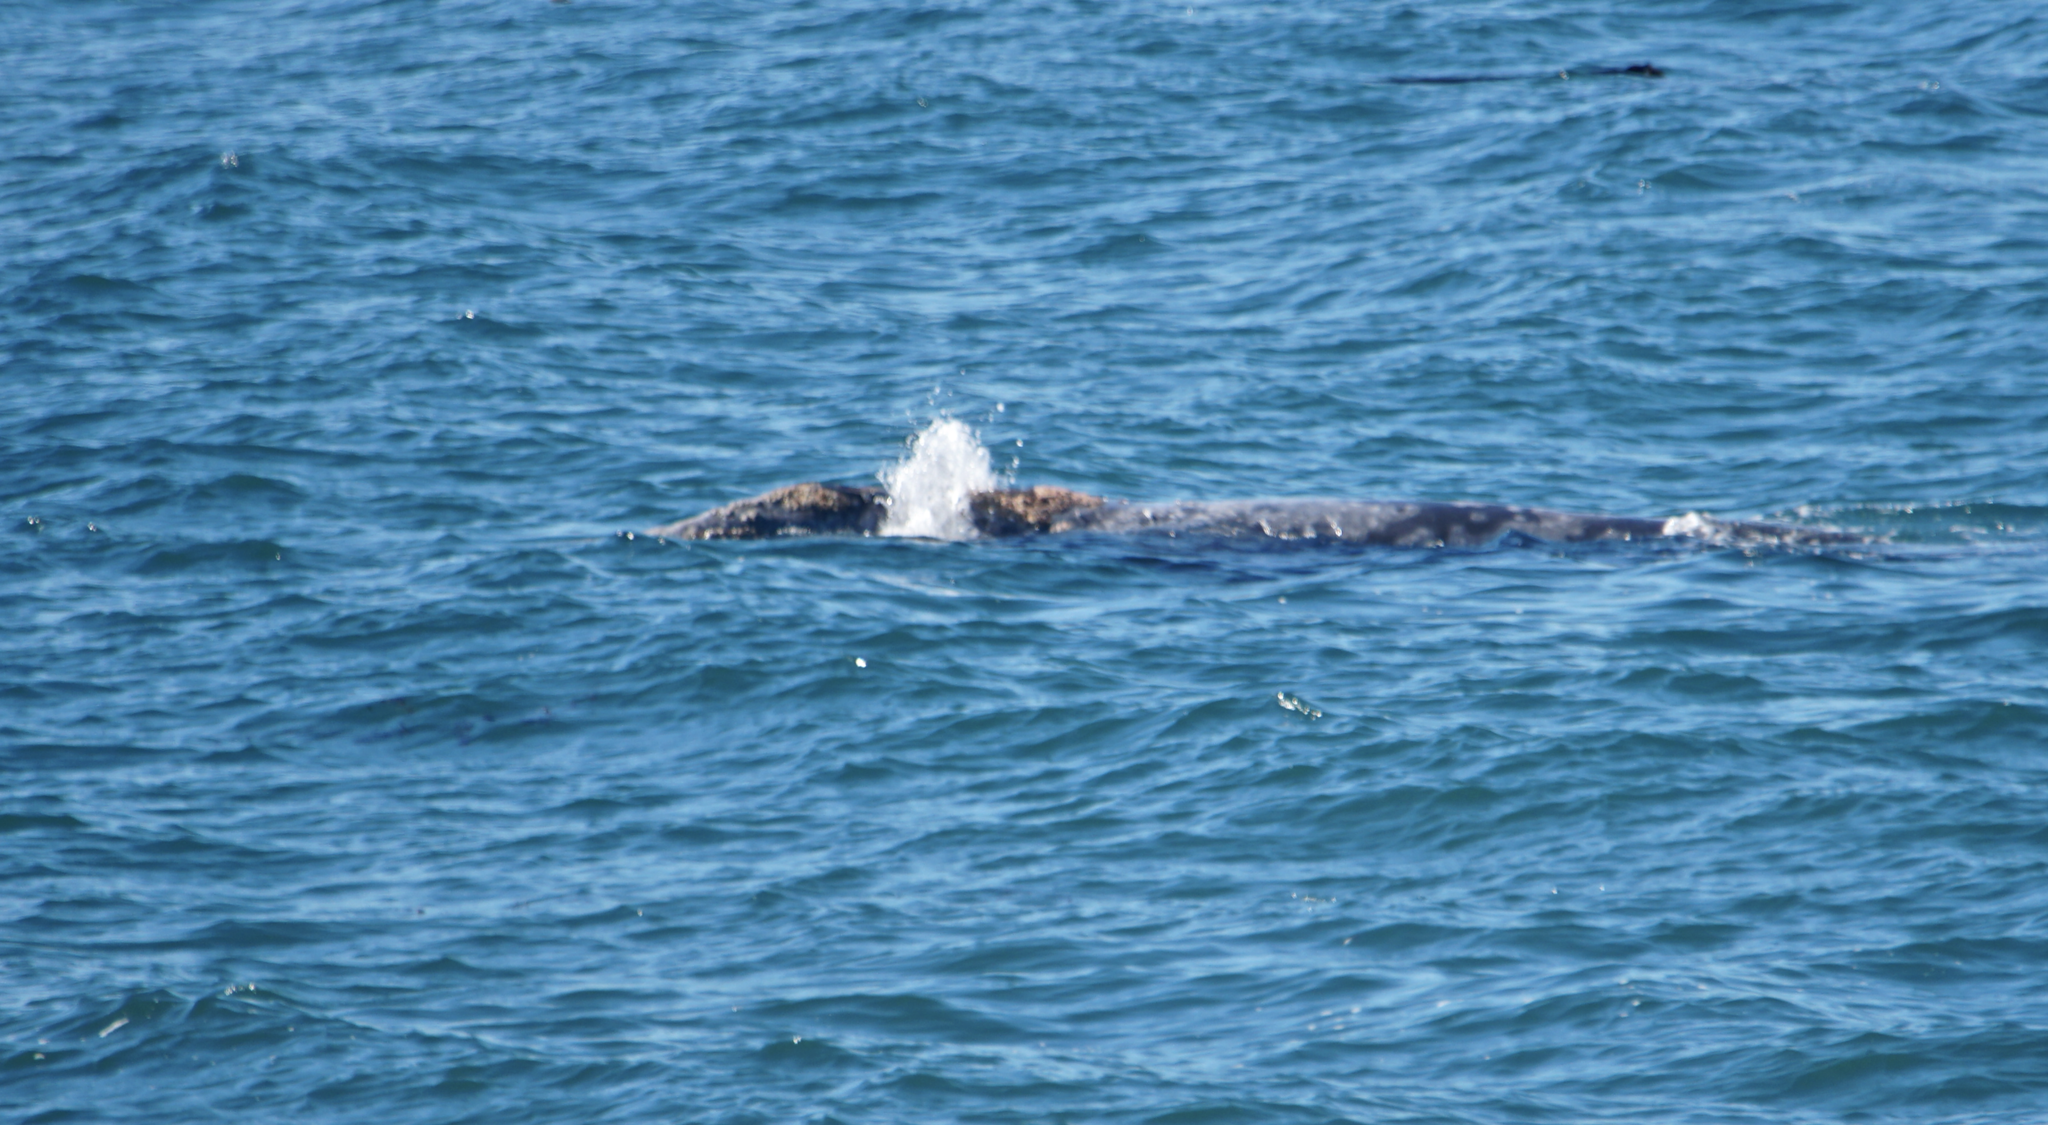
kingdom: Animalia
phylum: Chordata
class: Mammalia
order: Cetacea
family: Eschrichtiidae
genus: Eschrichtius
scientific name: Eschrichtius robustus
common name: Gray whale
